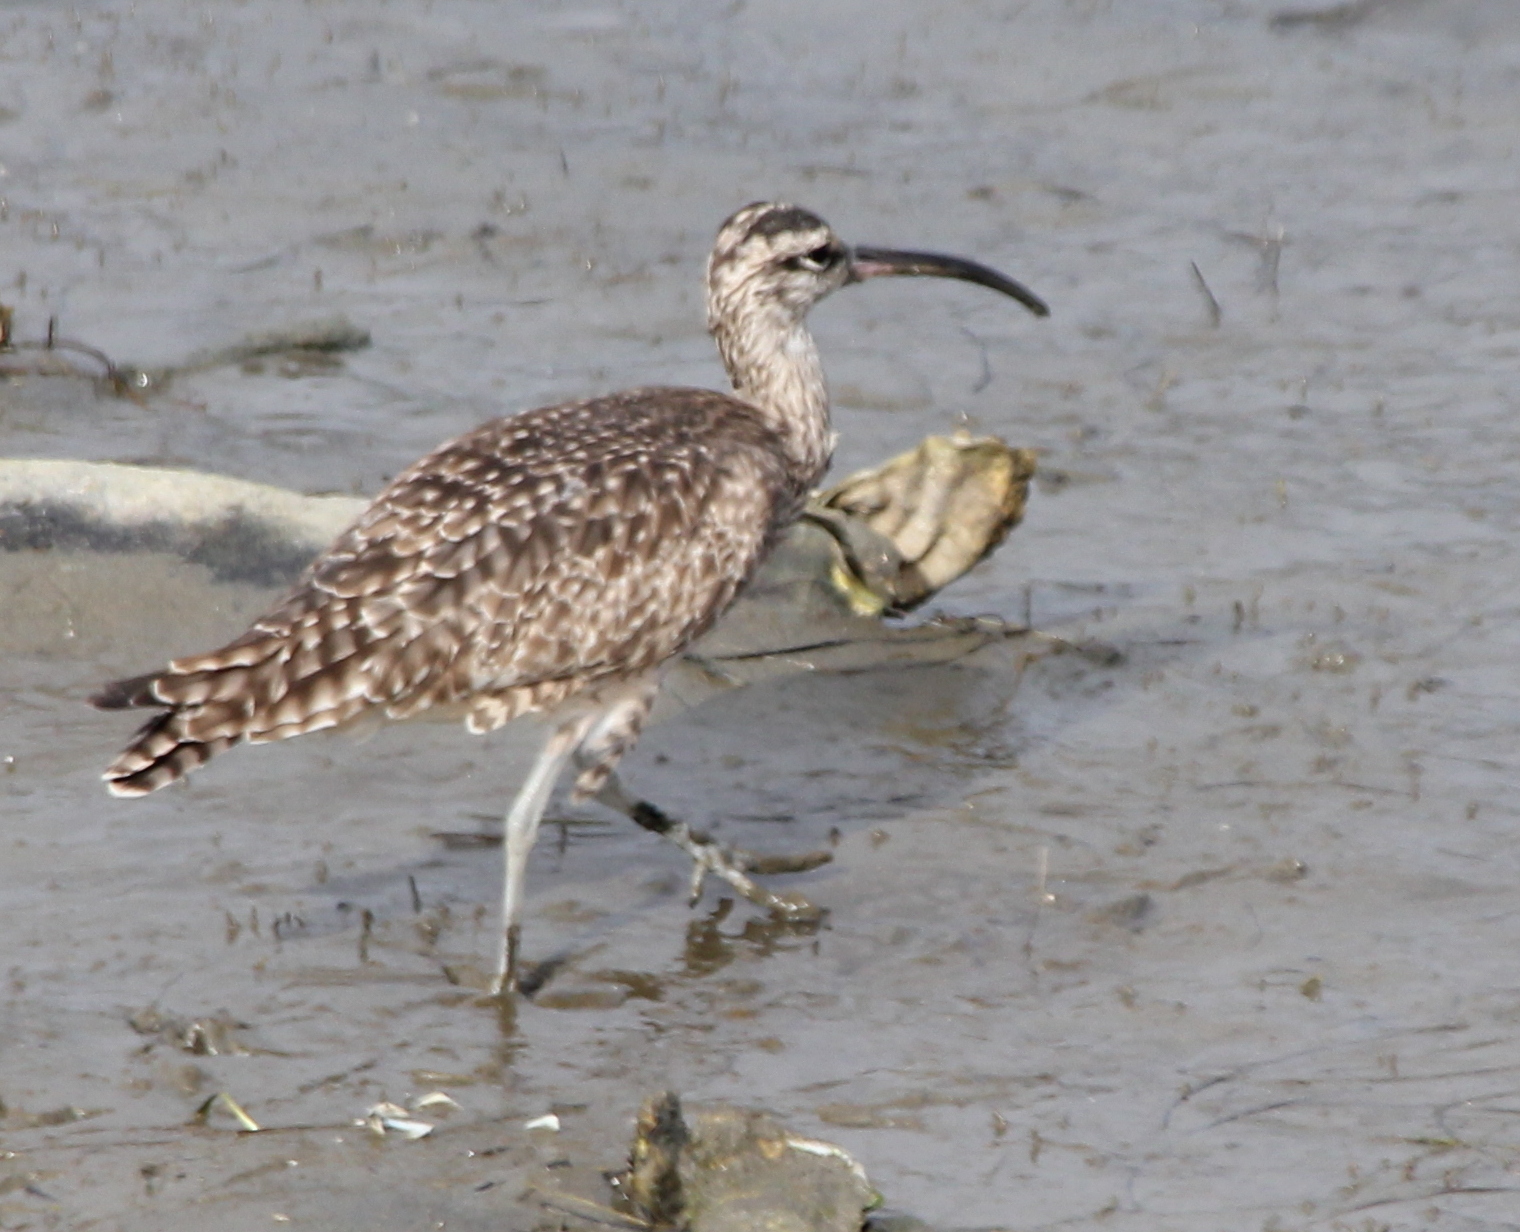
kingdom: Animalia
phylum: Chordata
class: Aves
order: Charadriiformes
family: Scolopacidae
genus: Numenius
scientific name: Numenius phaeopus
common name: Whimbrel
